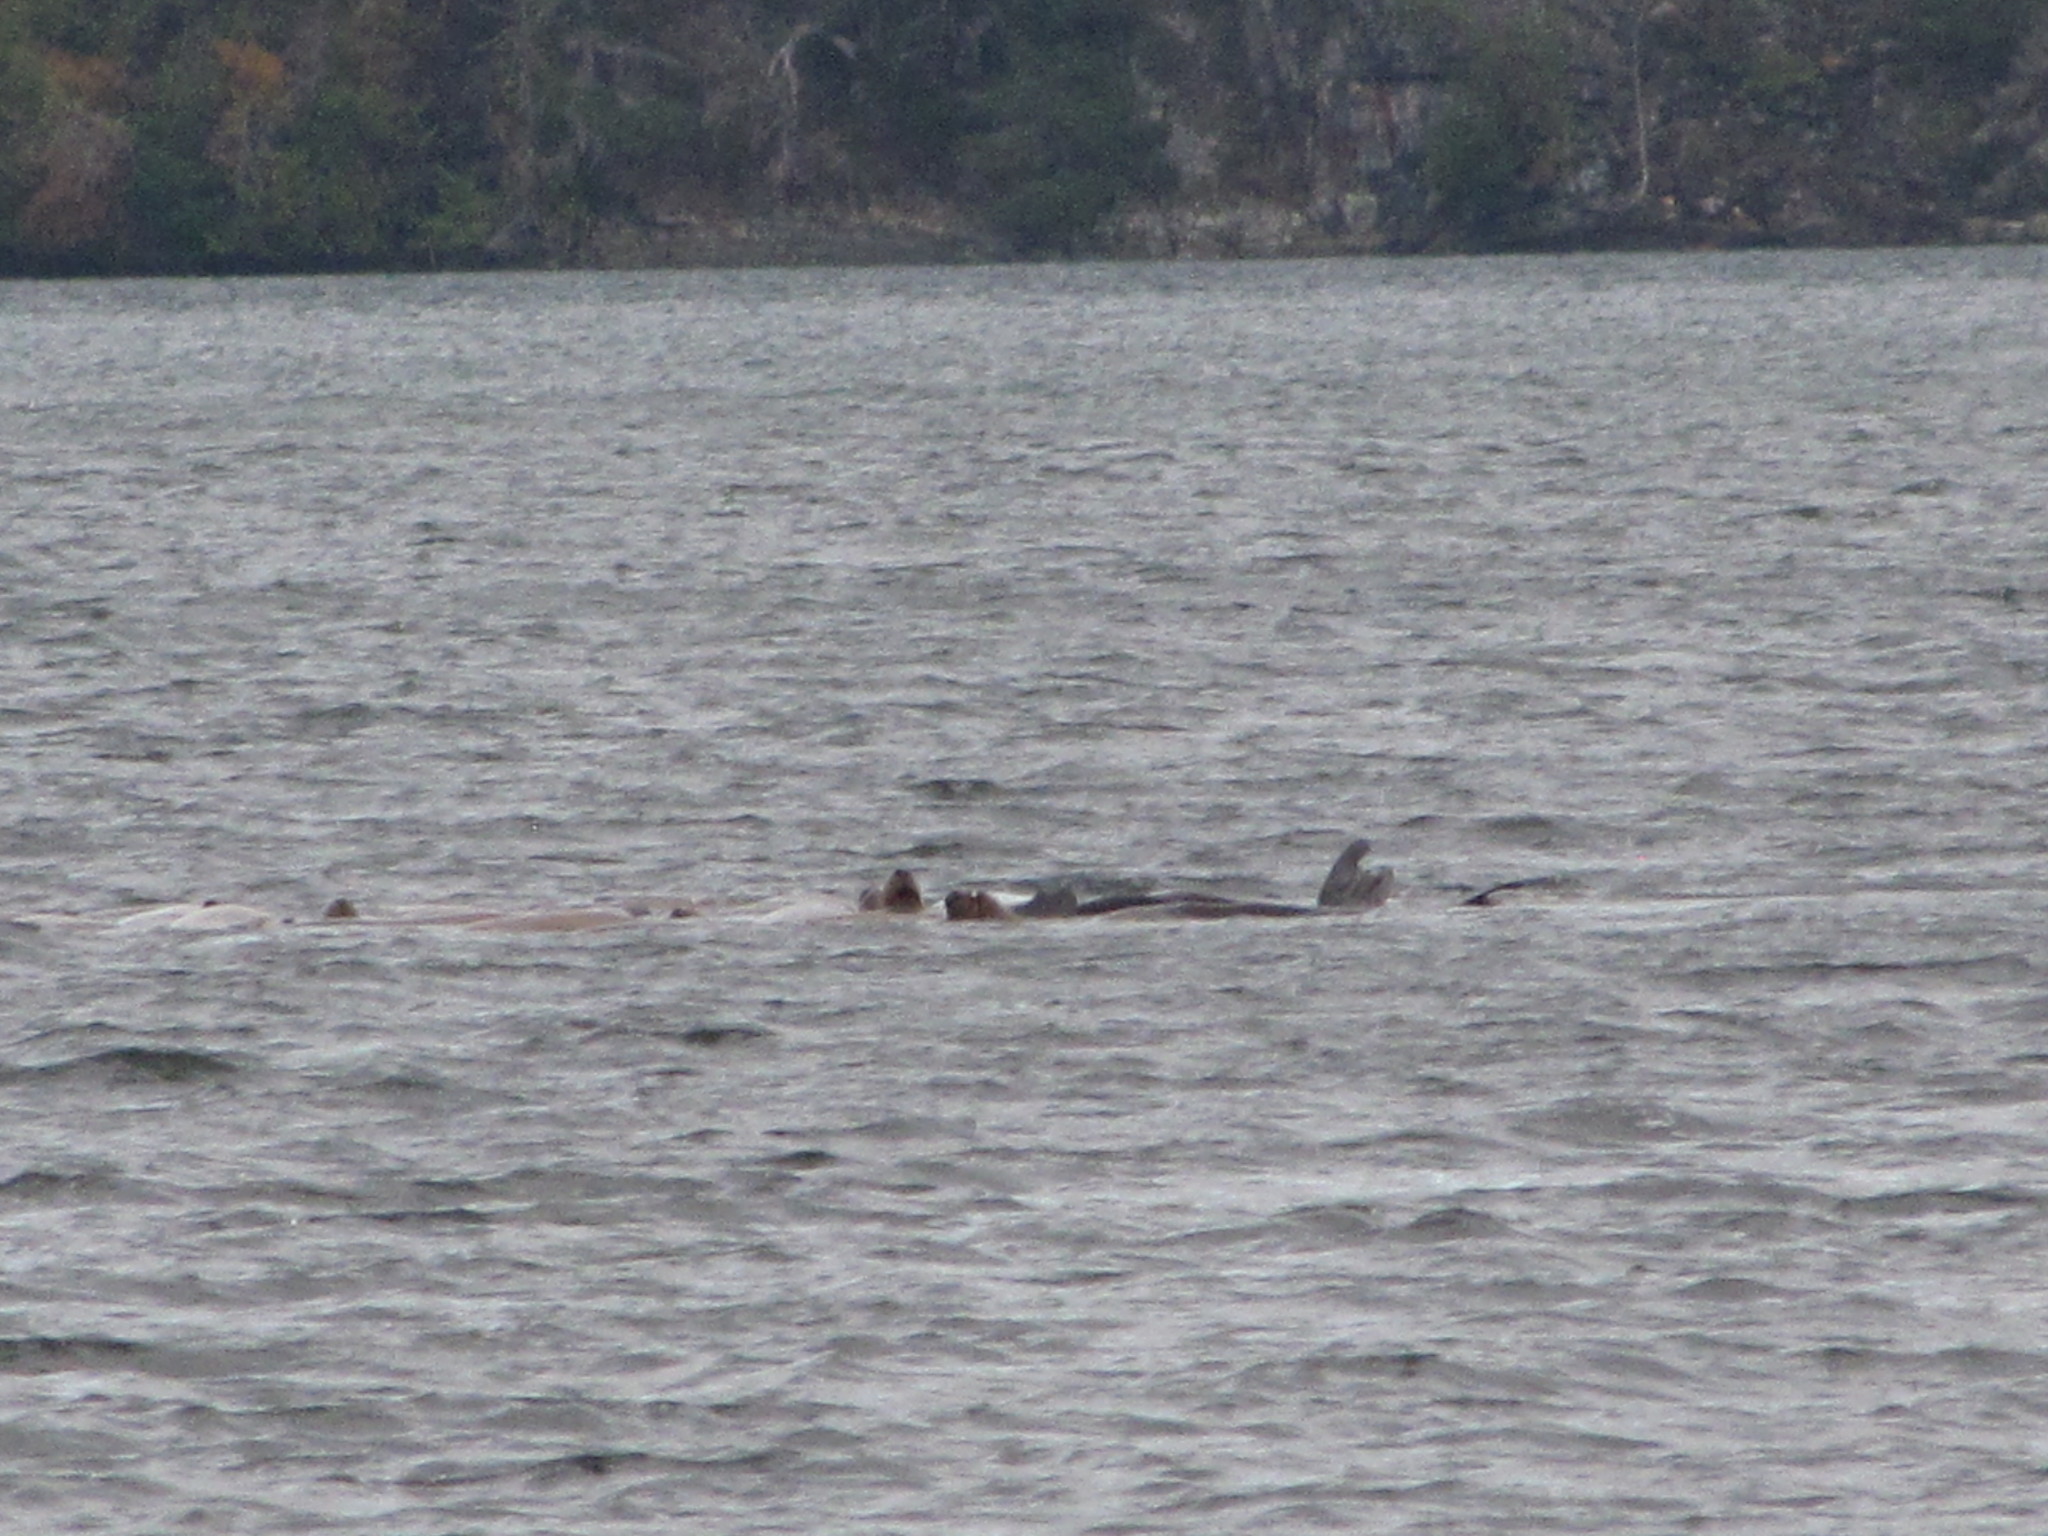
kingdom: Animalia
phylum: Chordata
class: Mammalia
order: Carnivora
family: Otariidae
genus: Eumetopias
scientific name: Eumetopias jubatus
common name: Steller sea lion
